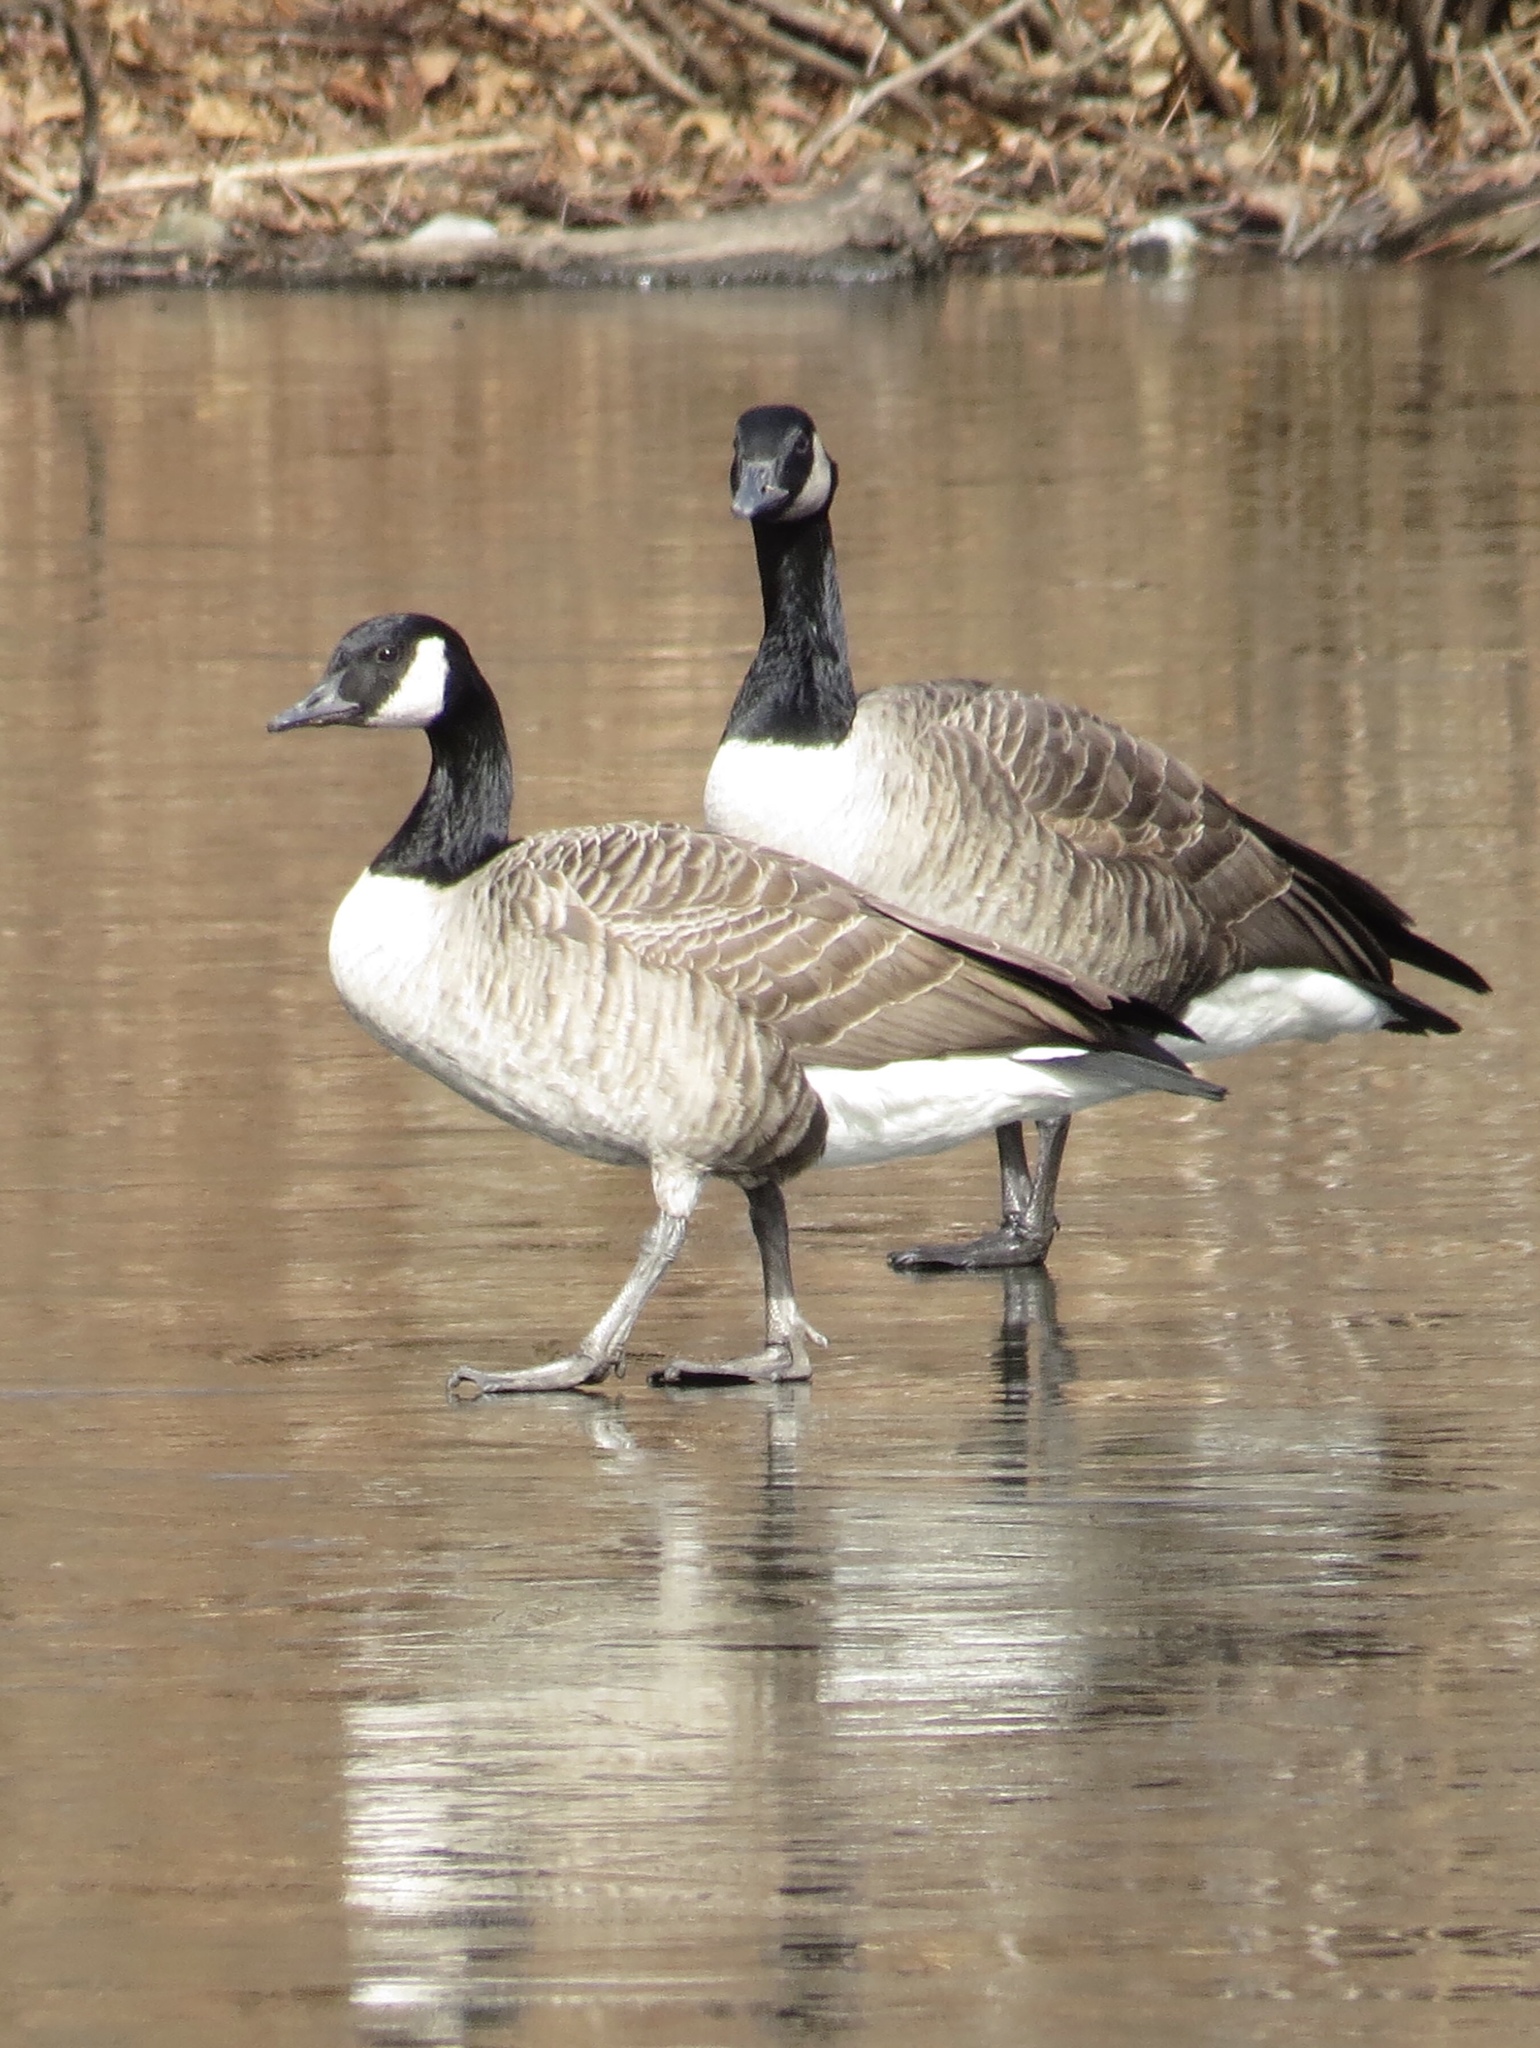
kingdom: Animalia
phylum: Chordata
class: Aves
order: Anseriformes
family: Anatidae
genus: Branta
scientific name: Branta canadensis
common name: Canada goose
